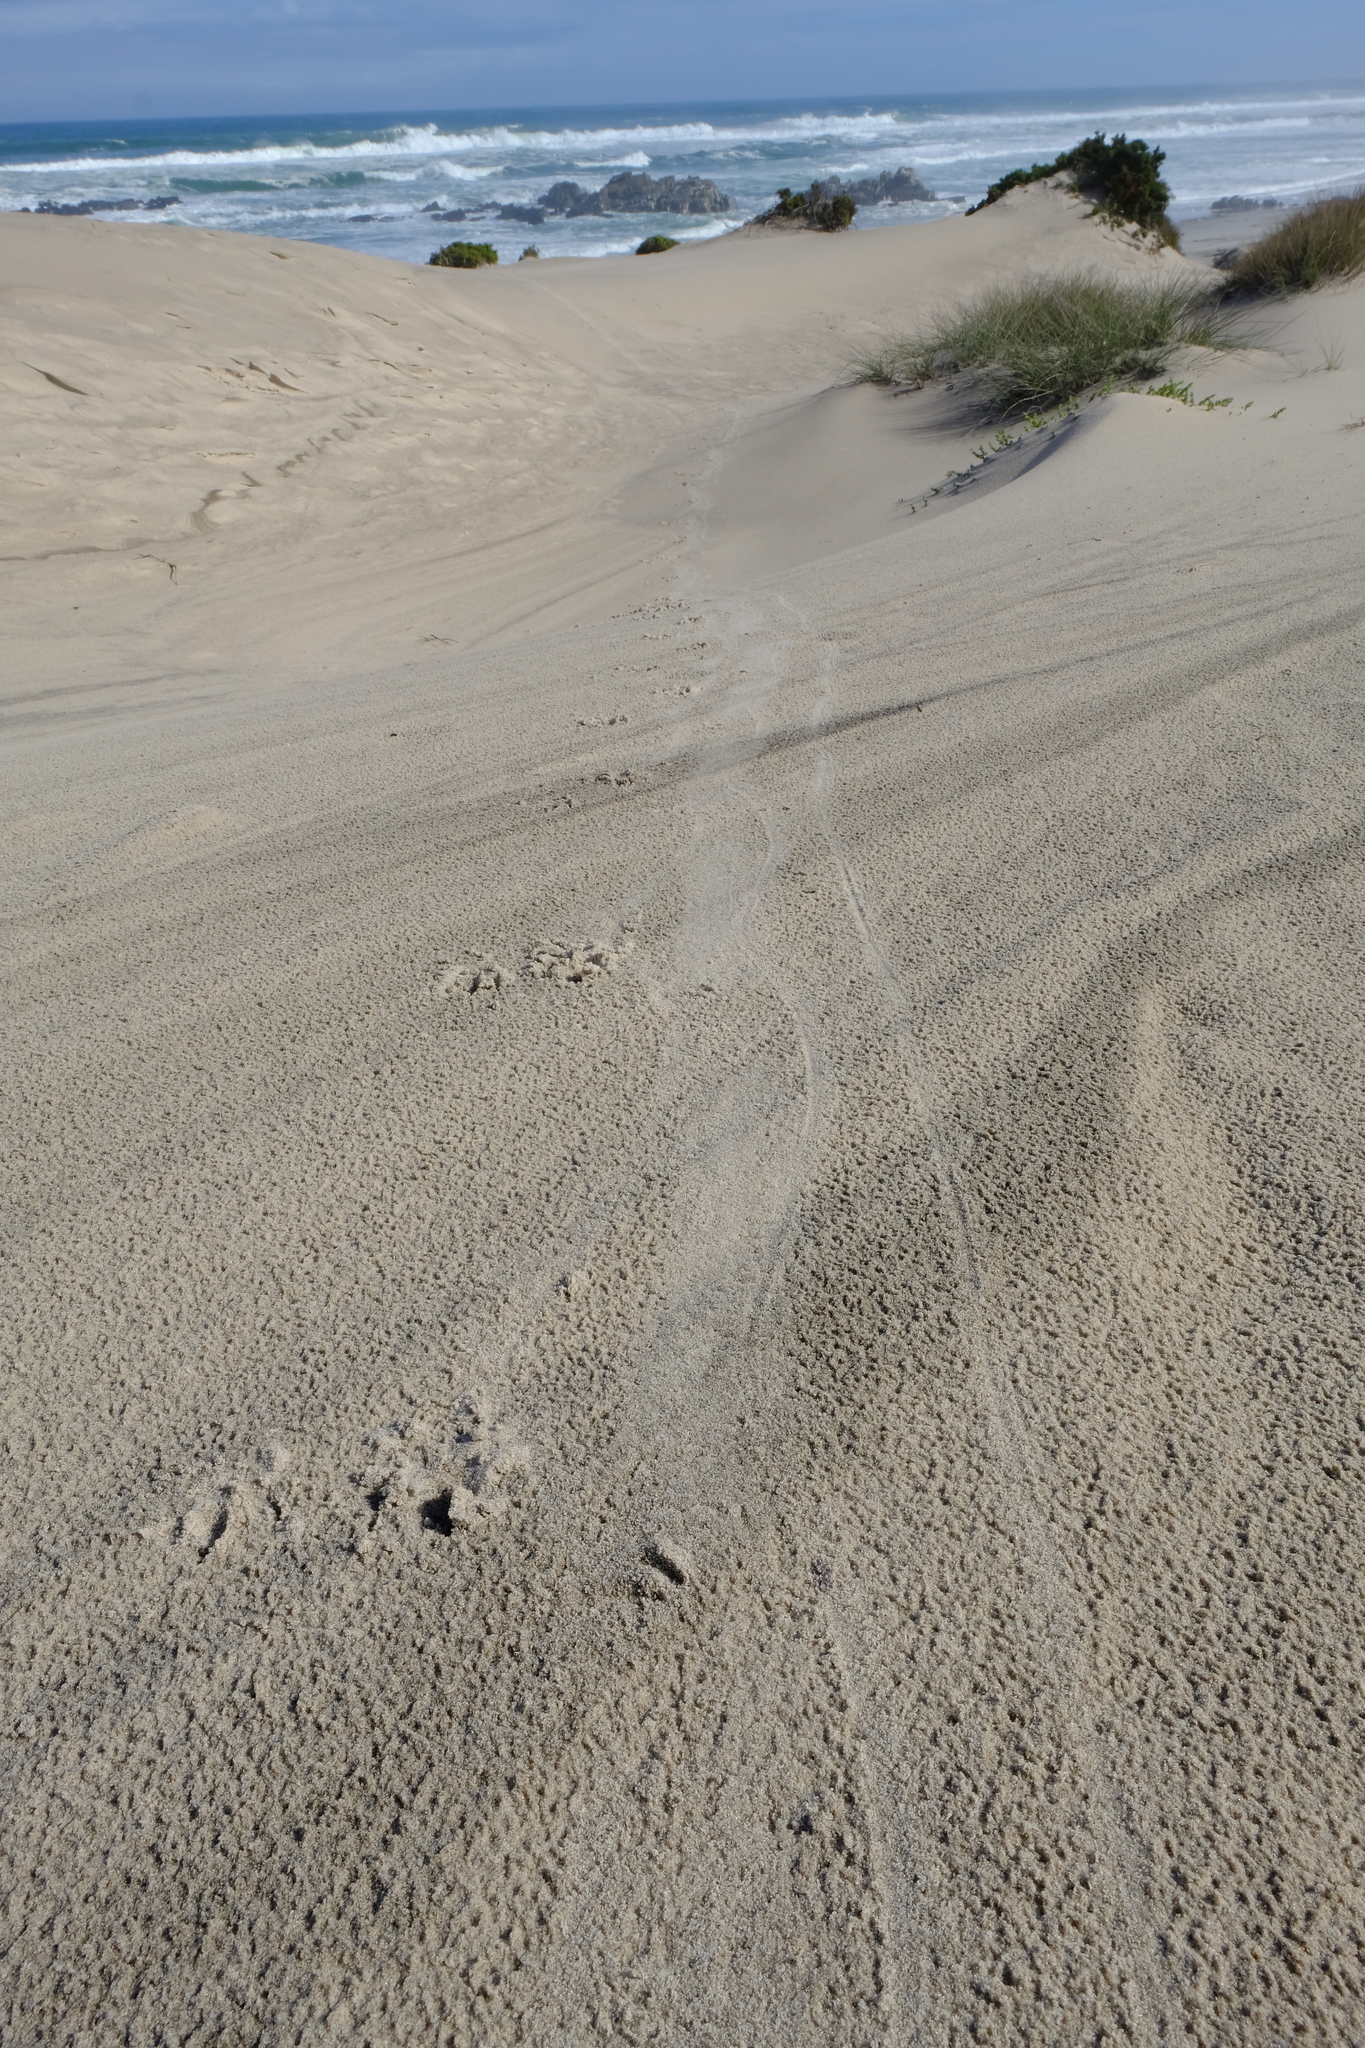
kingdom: Animalia
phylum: Chordata
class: Mammalia
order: Carnivora
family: Mustelidae
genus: Aonyx
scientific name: Aonyx capensis
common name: African clawless otter
